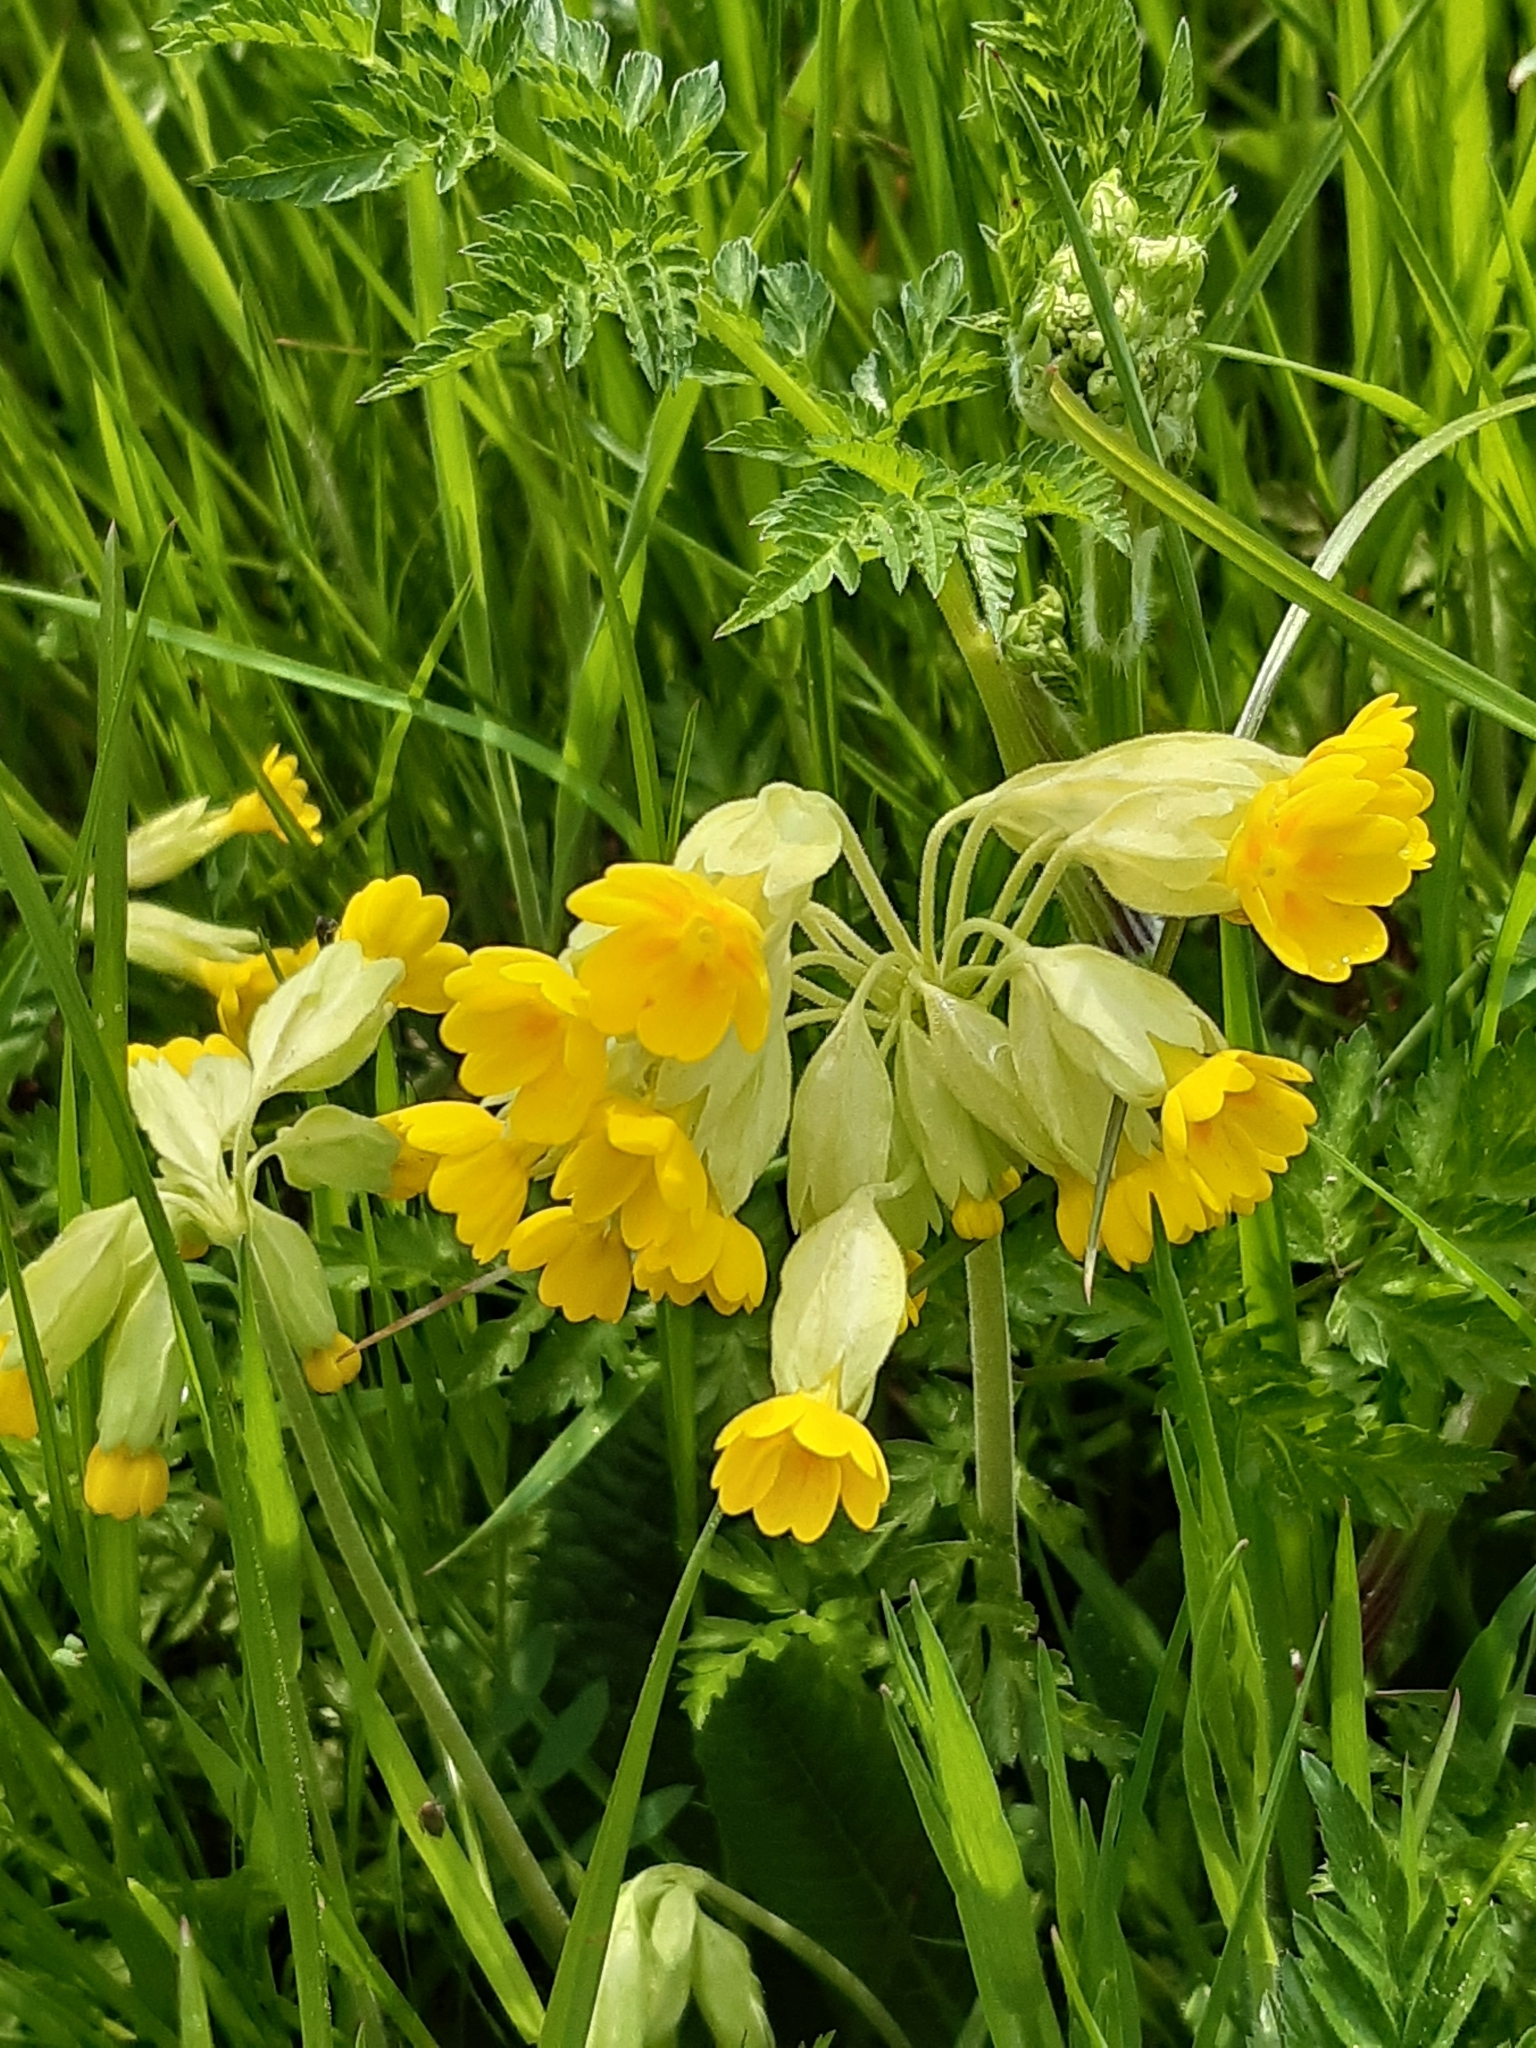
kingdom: Plantae
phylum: Tracheophyta
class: Magnoliopsida
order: Ericales
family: Primulaceae
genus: Primula
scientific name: Primula veris
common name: Cowslip
